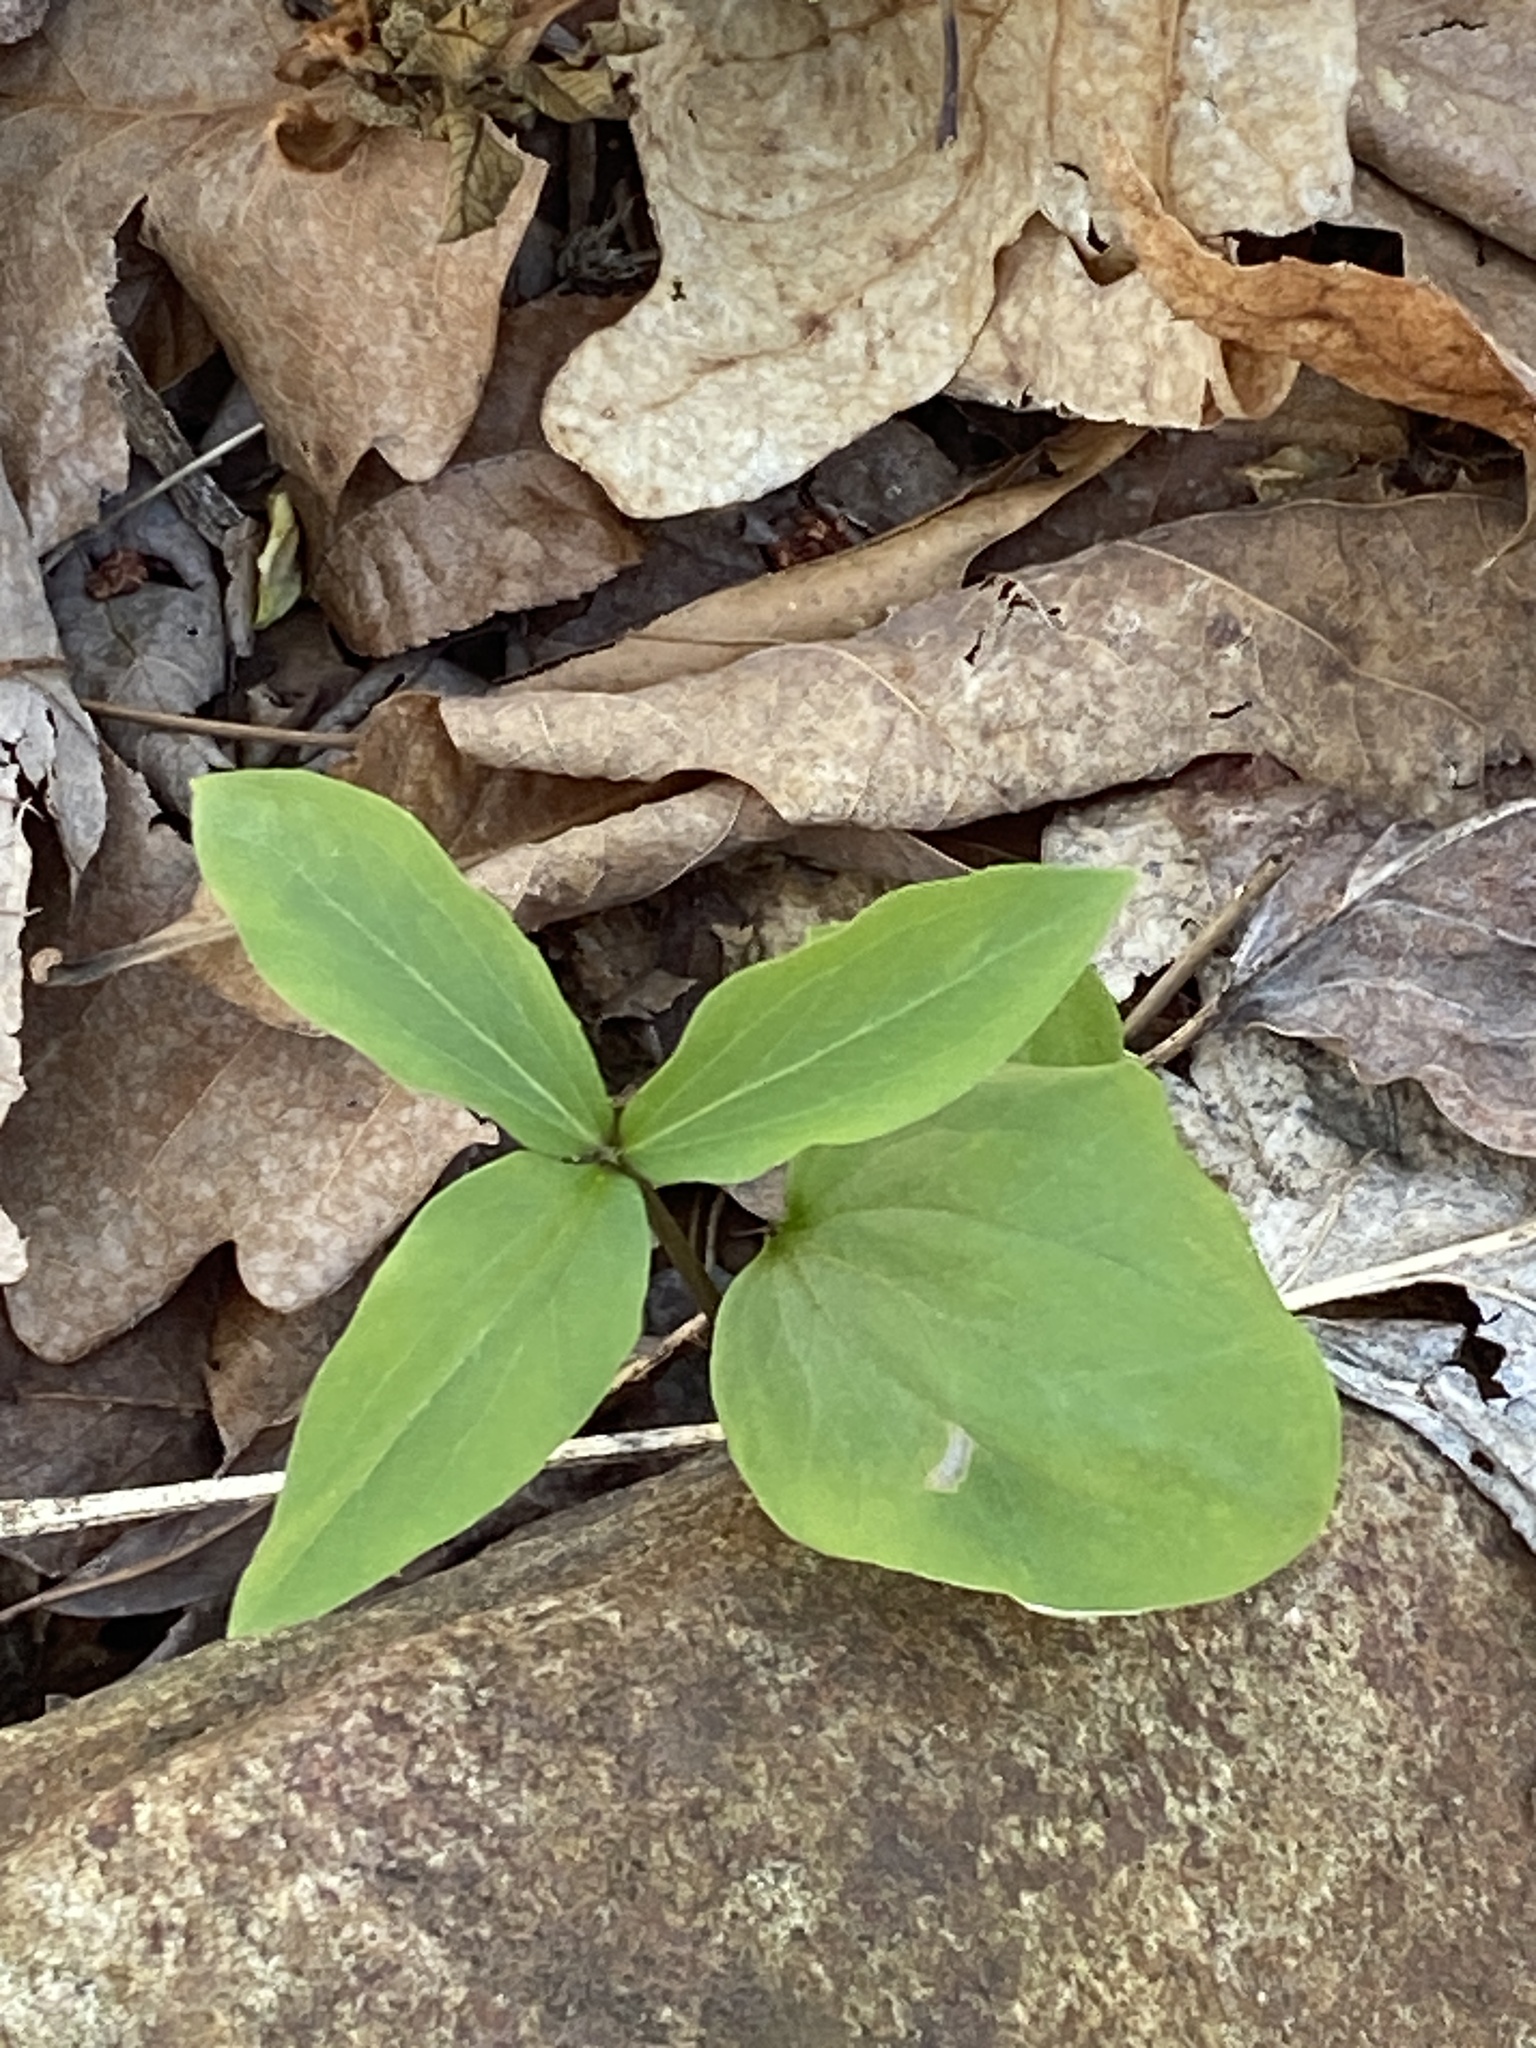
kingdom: Plantae
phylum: Tracheophyta
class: Liliopsida
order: Liliales
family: Melanthiaceae
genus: Trillium
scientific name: Trillium catesbaei
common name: Bashful trillium
